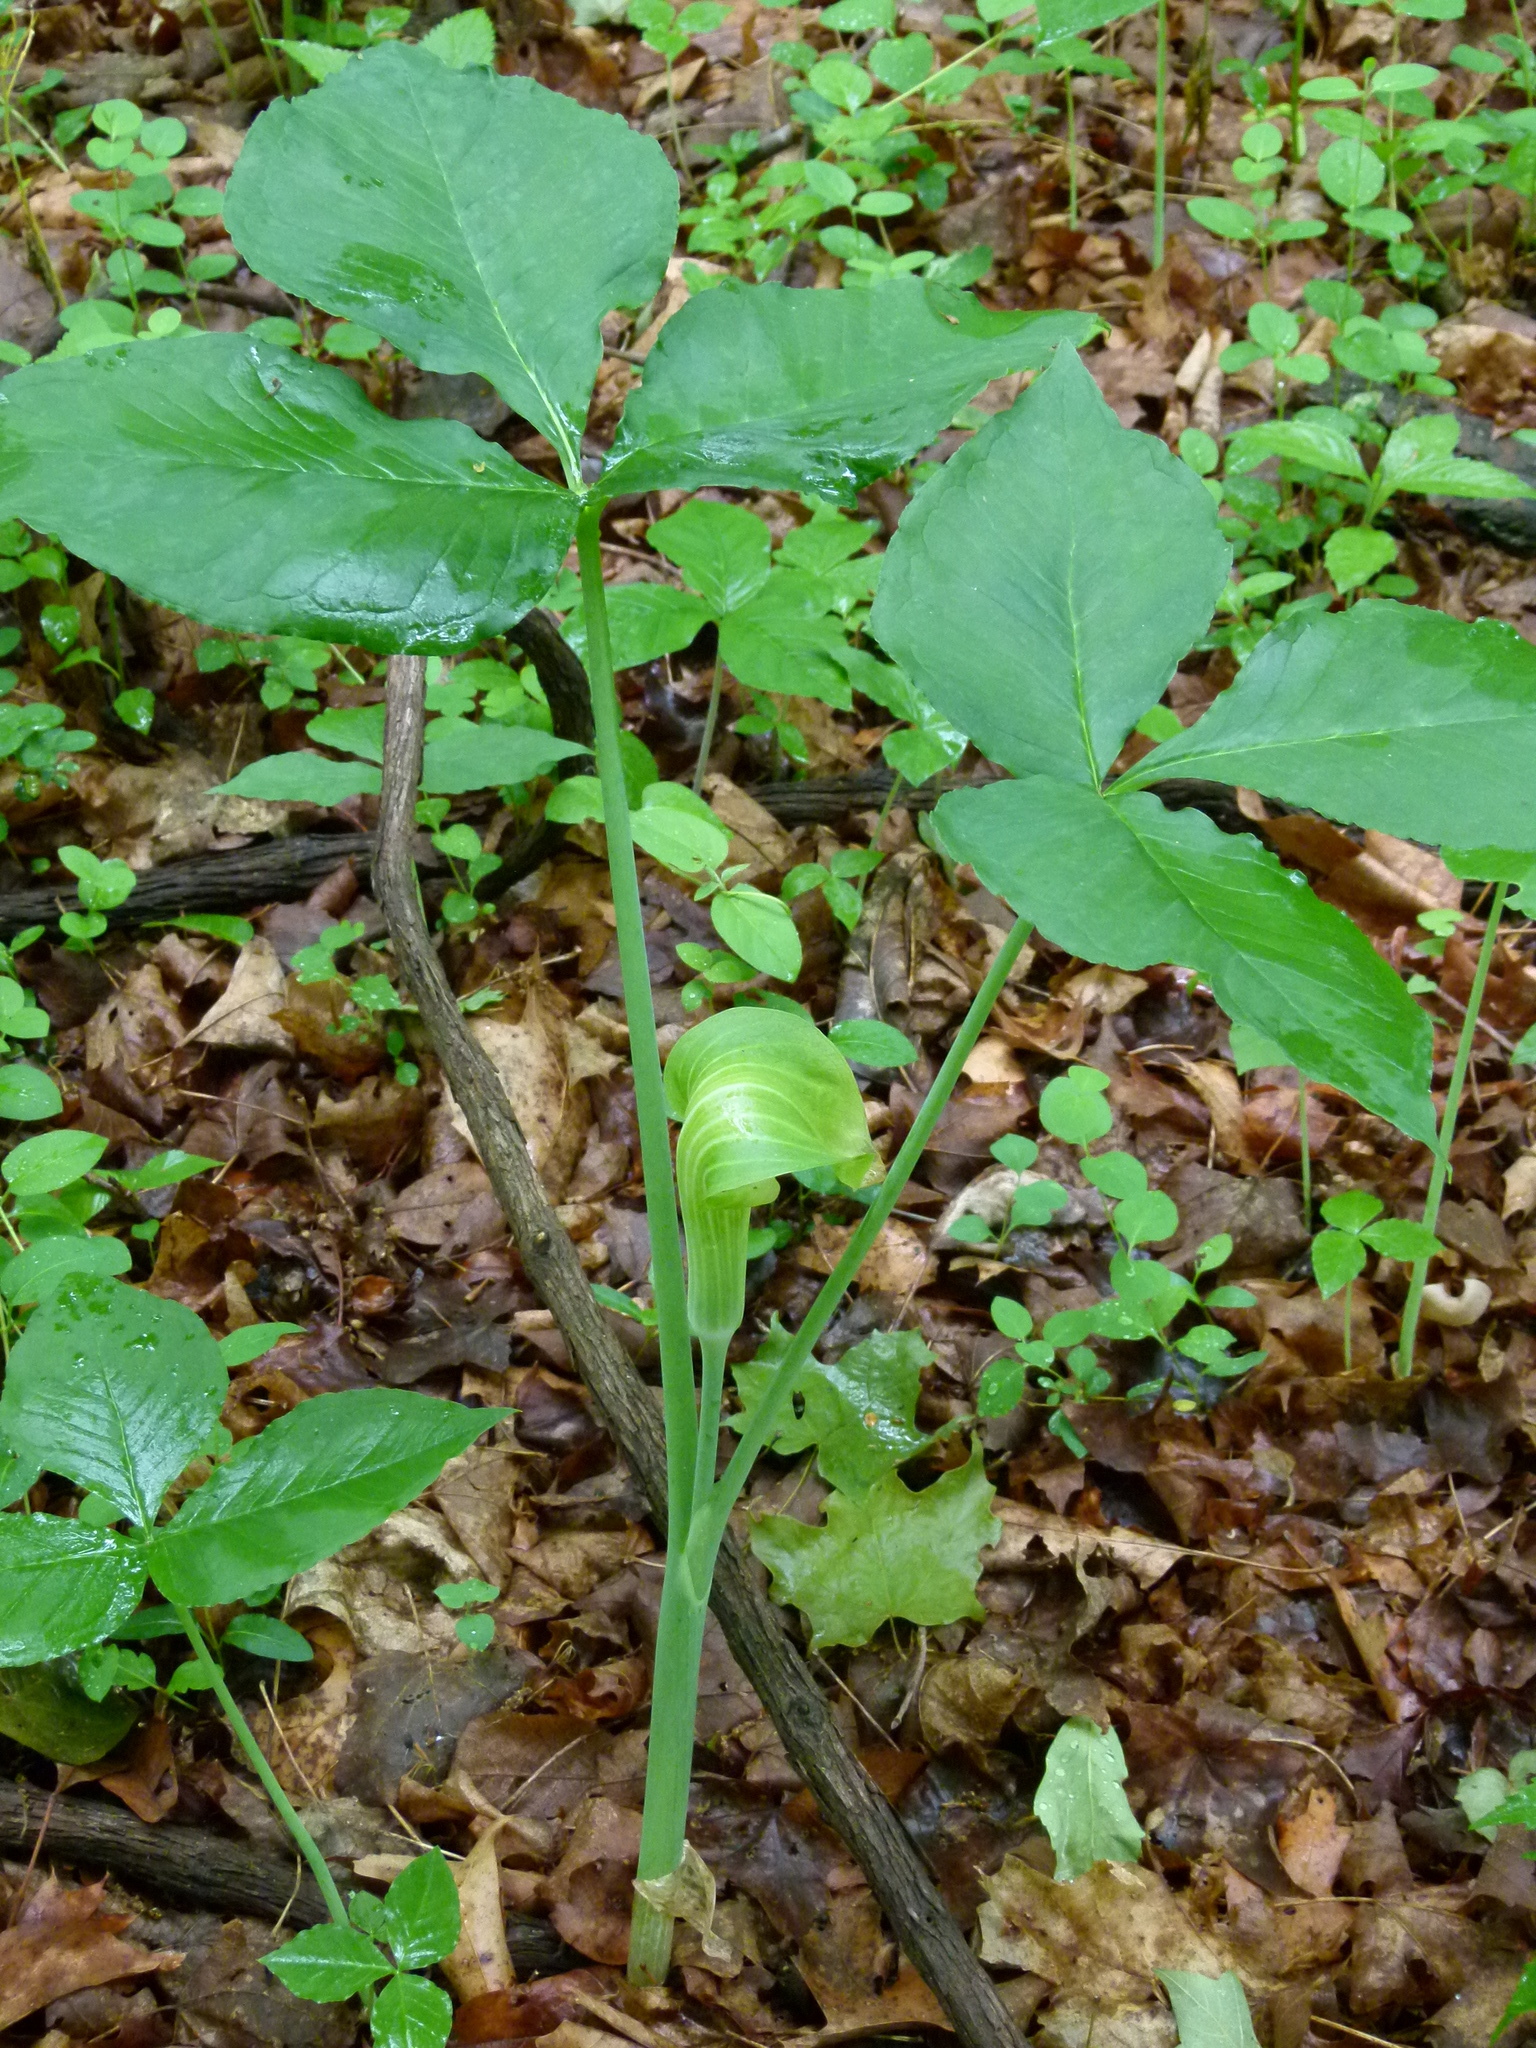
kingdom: Plantae
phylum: Tracheophyta
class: Liliopsida
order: Alismatales
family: Araceae
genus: Arisaema
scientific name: Arisaema triphyllum
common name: Jack-in-the-pulpit
